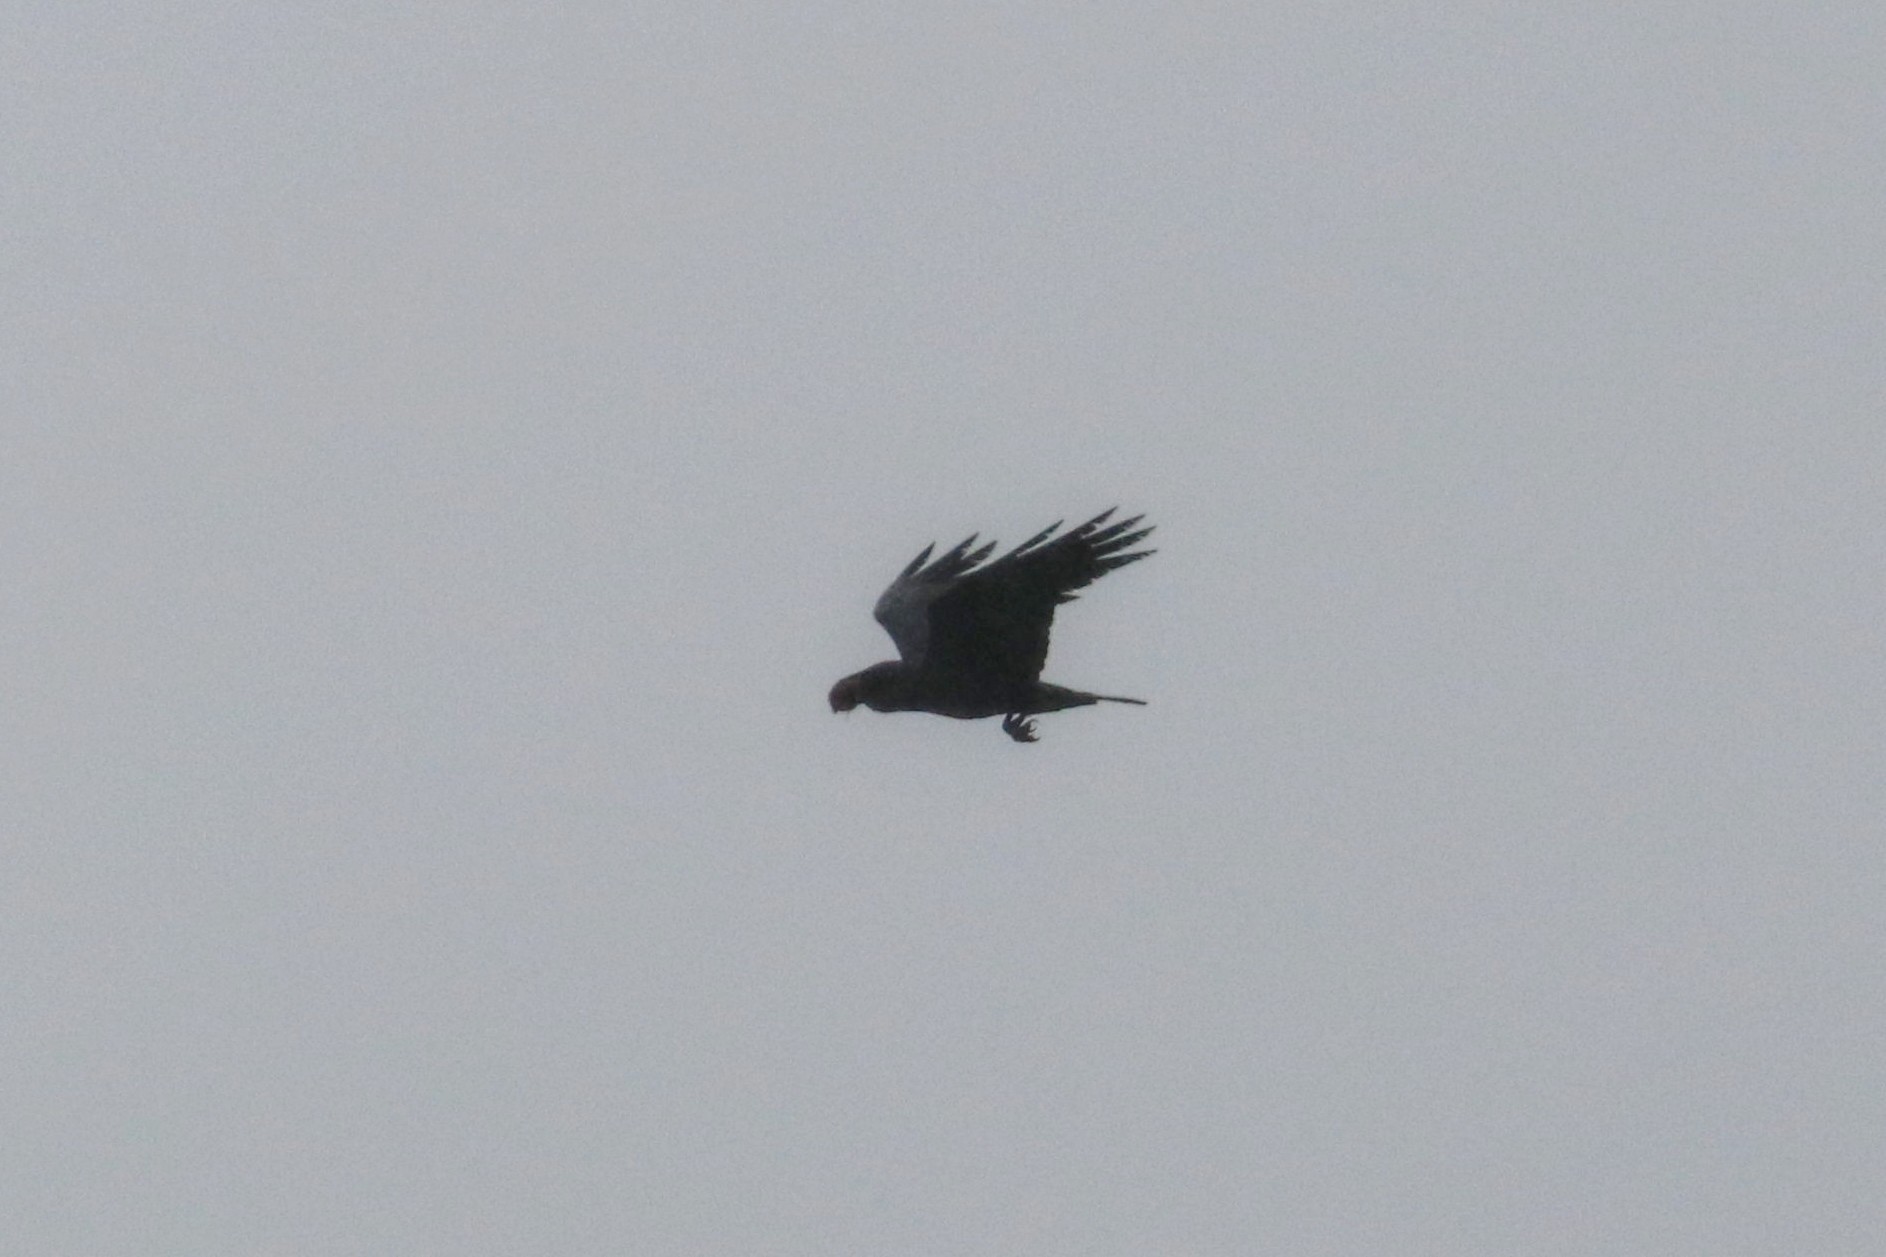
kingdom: Animalia
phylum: Chordata
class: Aves
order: Passeriformes
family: Corvidae
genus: Corvus
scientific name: Corvus corax
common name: Common raven
